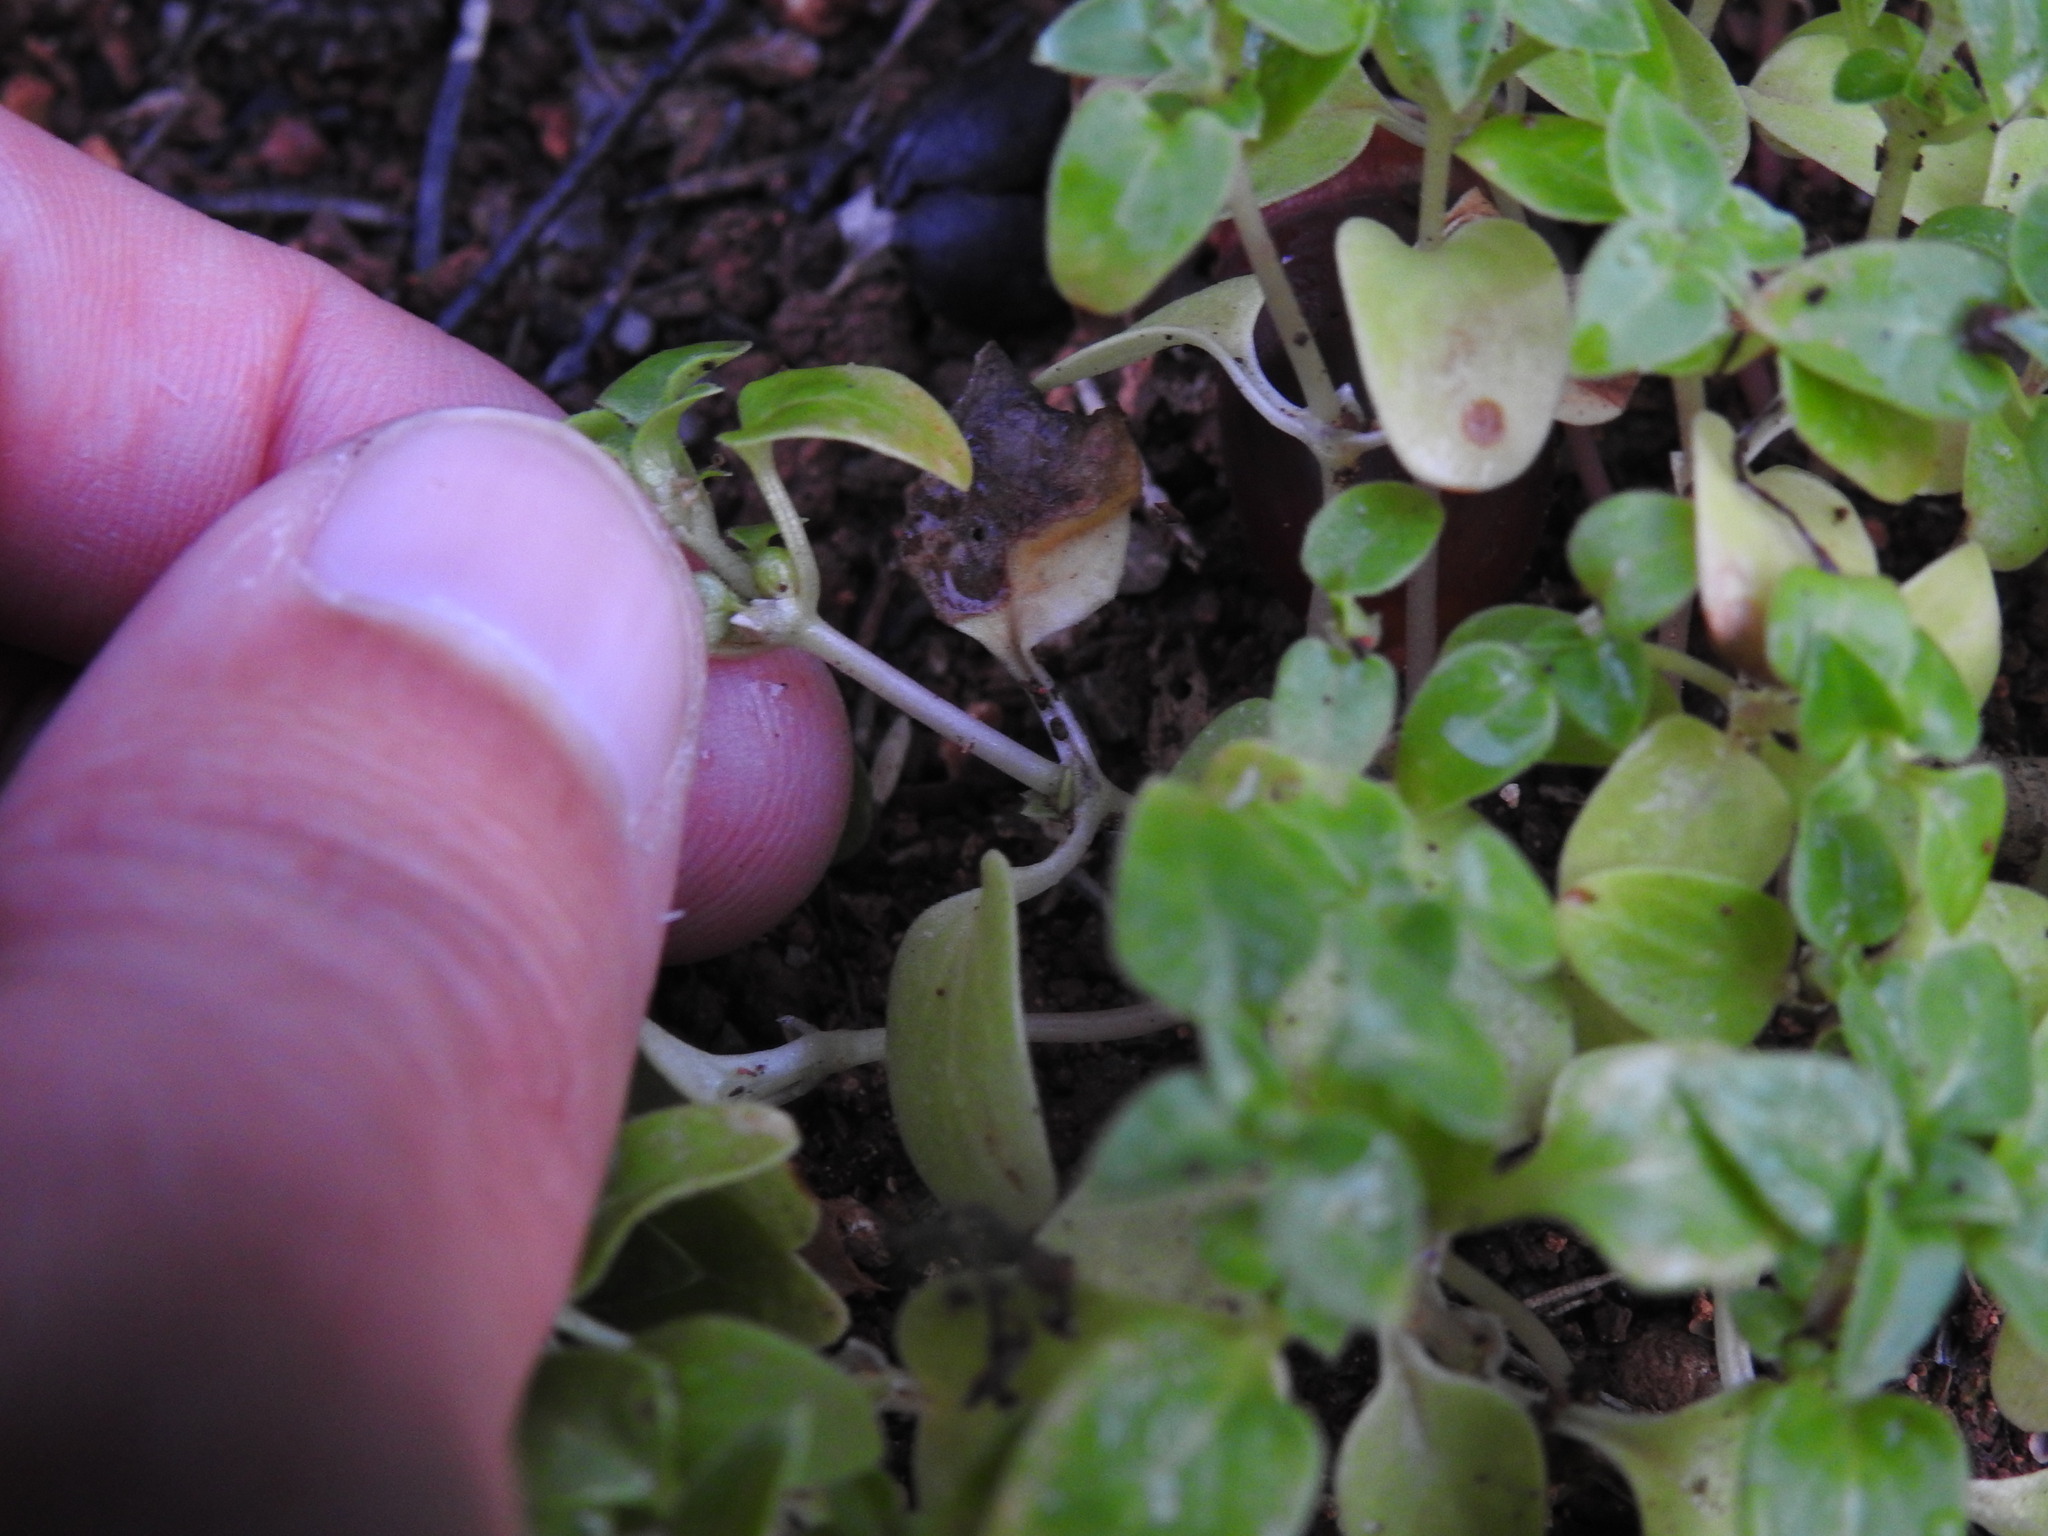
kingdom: Plantae
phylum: Tracheophyta
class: Magnoliopsida
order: Gentianales
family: Rubiaceae
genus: Theligonum
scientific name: Theligonum cynocrambe
